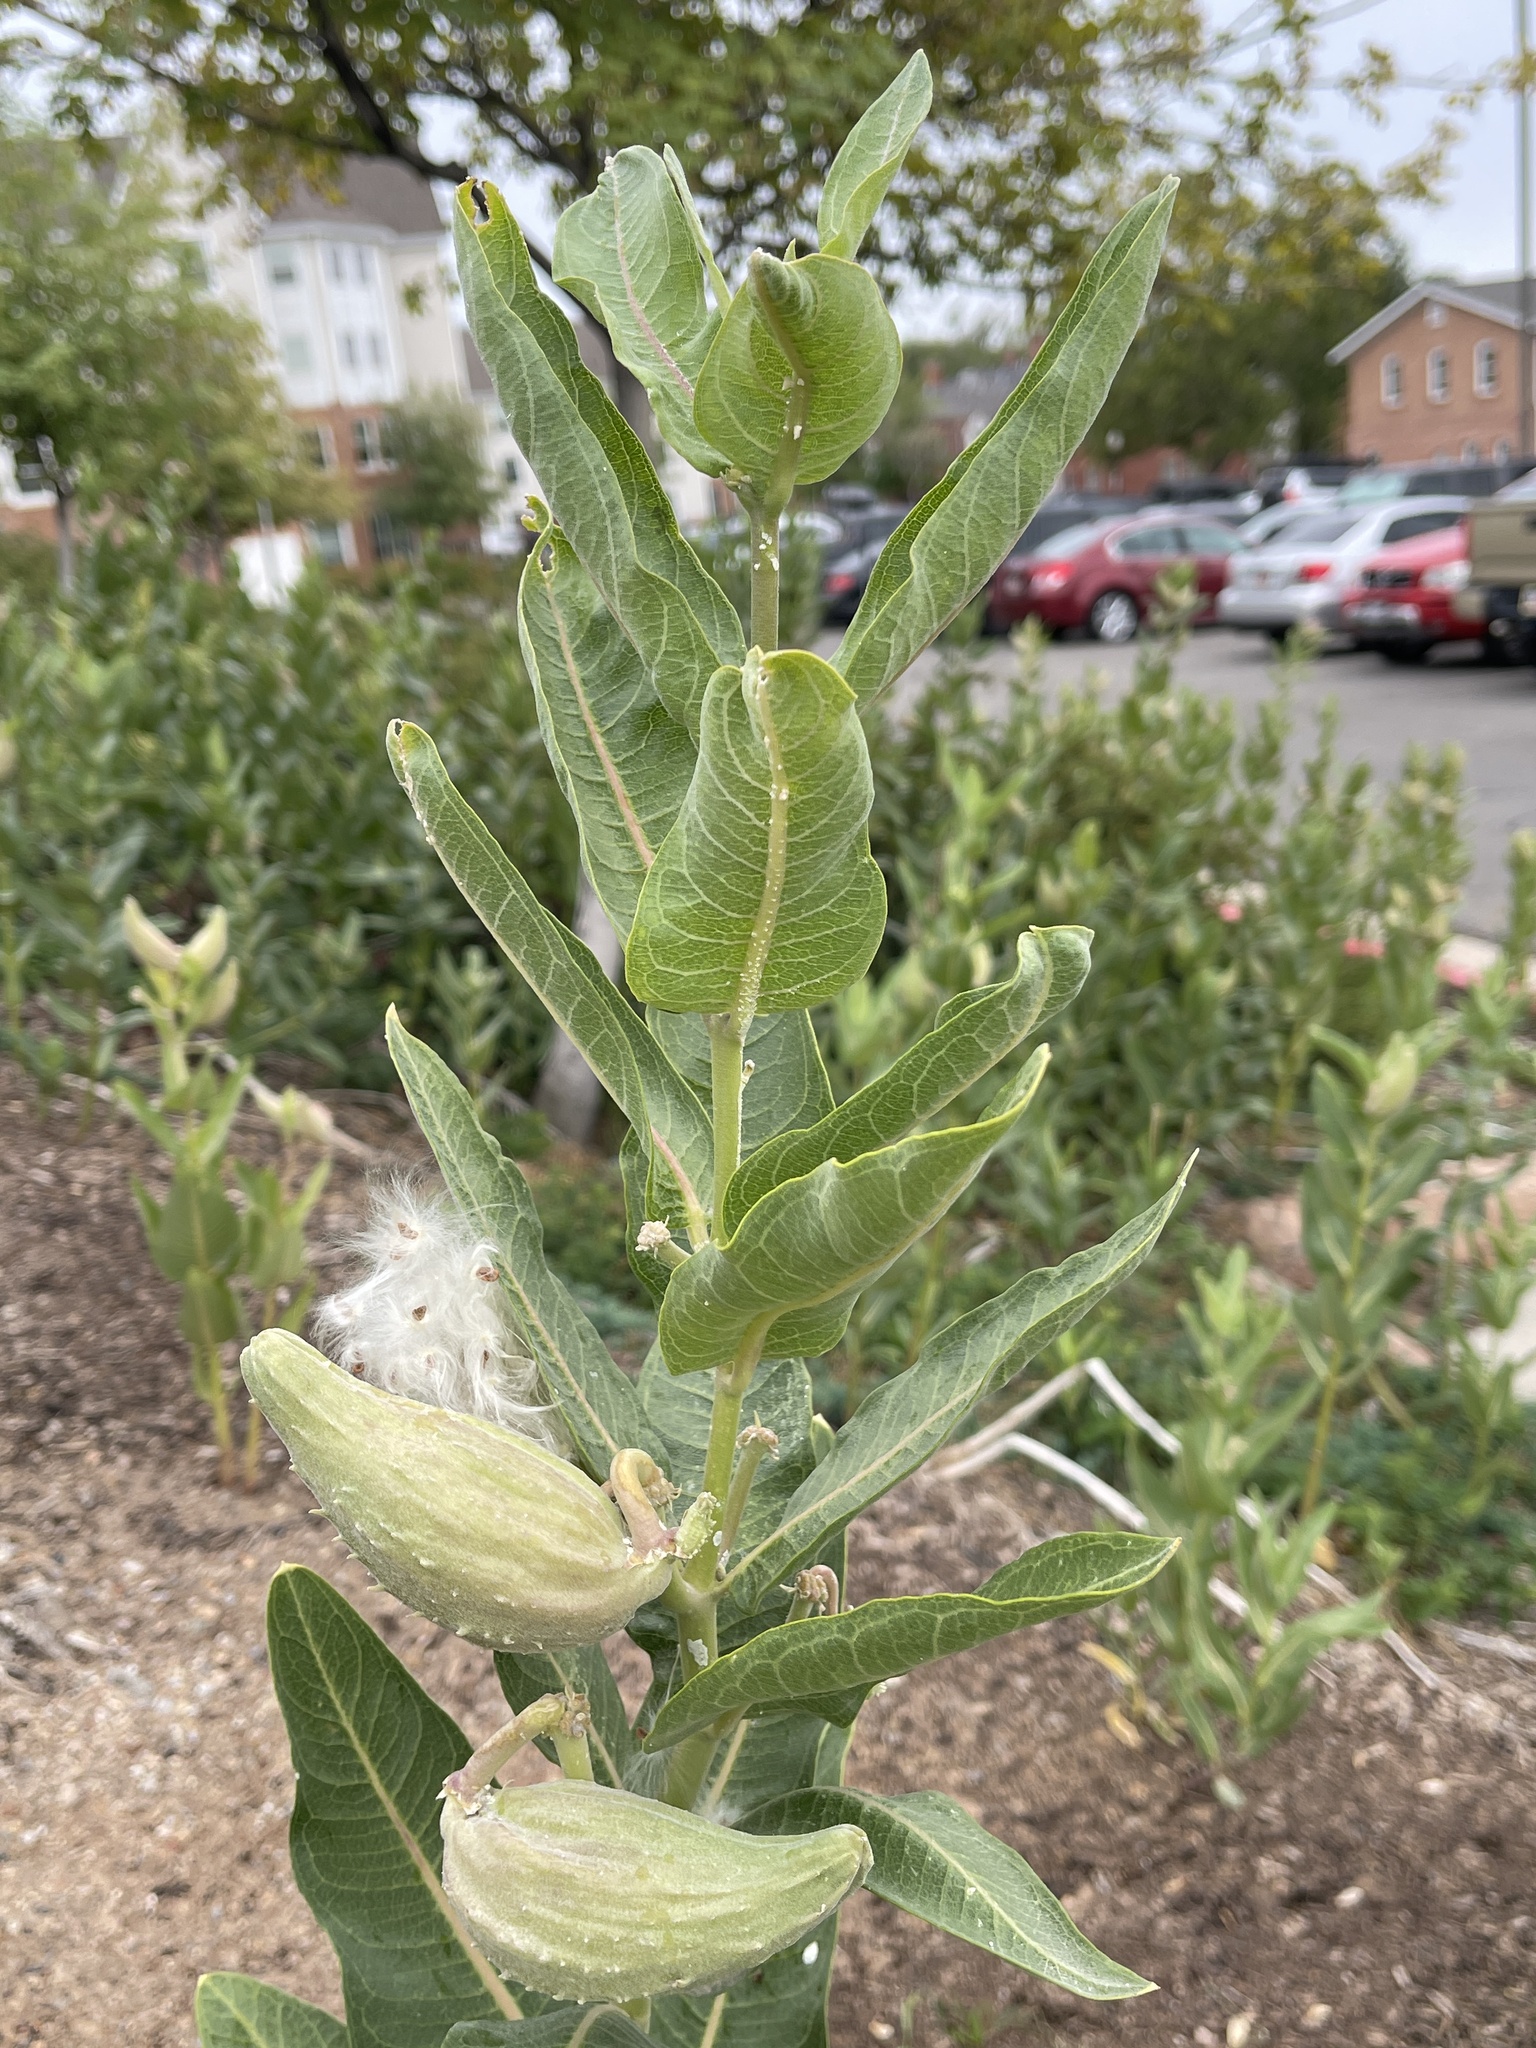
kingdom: Plantae
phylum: Tracheophyta
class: Magnoliopsida
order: Gentianales
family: Apocynaceae
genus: Asclepias
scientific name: Asclepias speciosa
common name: Showy milkweed
